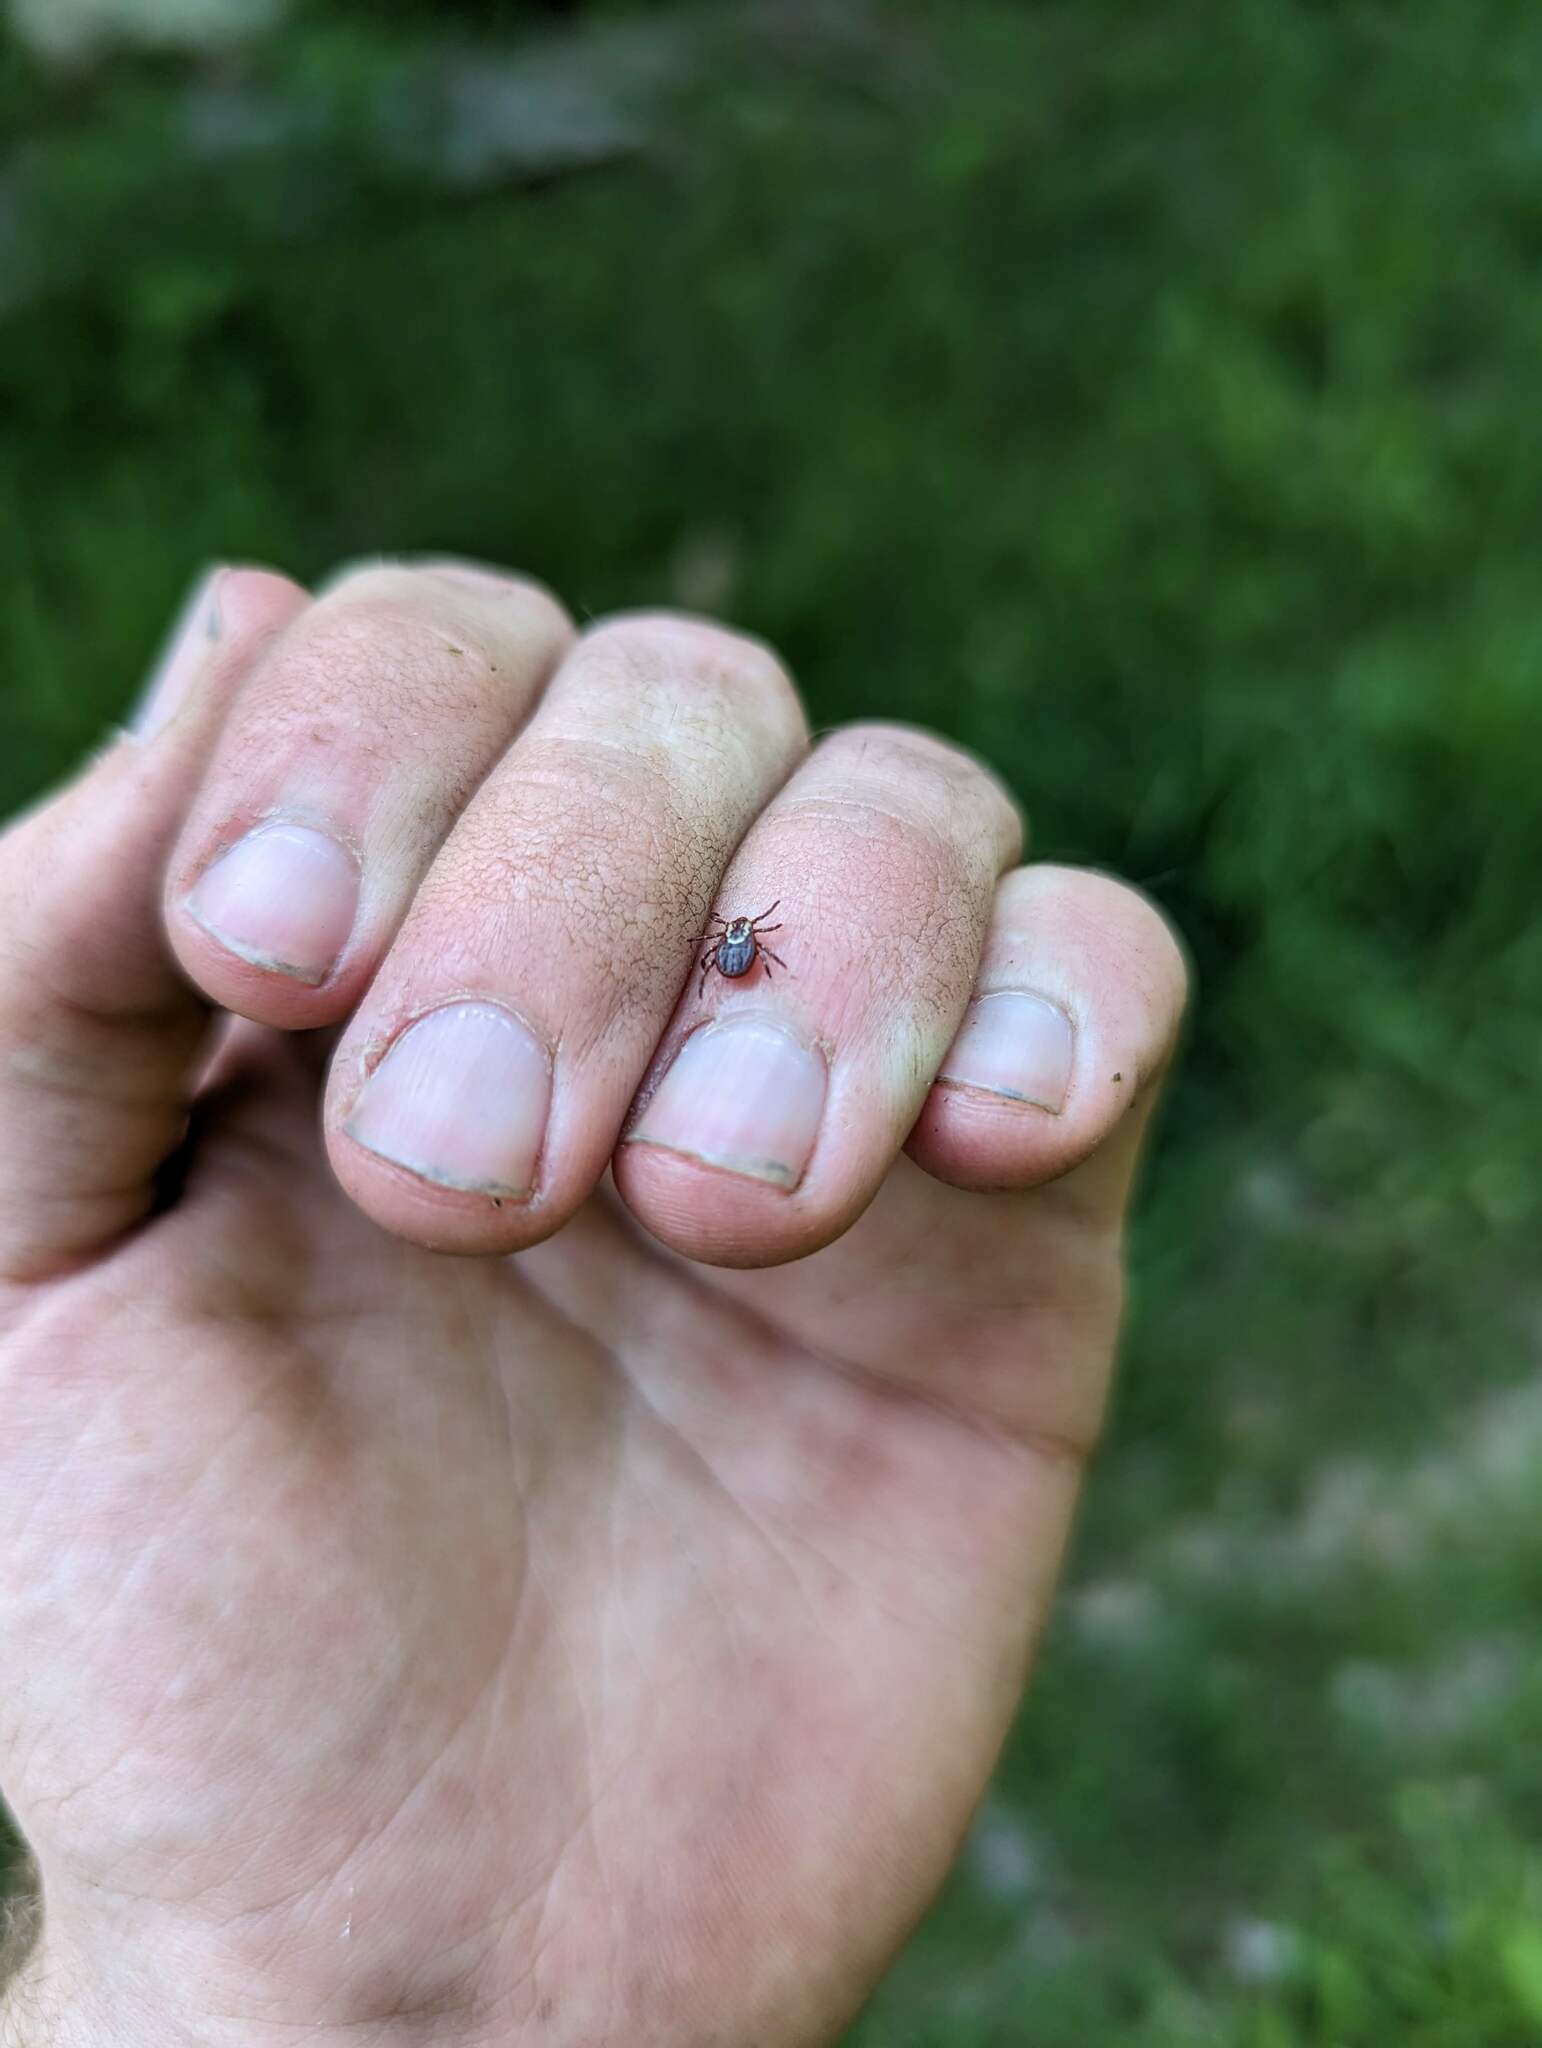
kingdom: Animalia
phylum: Arthropoda
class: Arachnida
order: Ixodida
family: Ixodidae
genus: Dermacentor
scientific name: Dermacentor variabilis
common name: American dog tick
